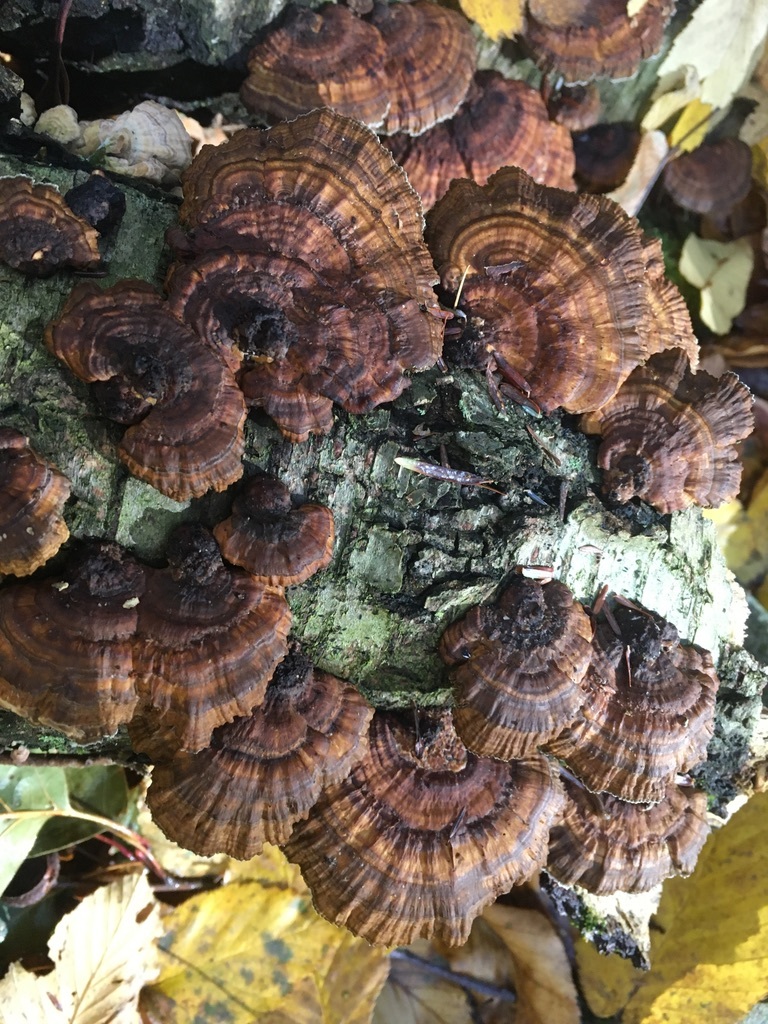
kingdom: Fungi
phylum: Basidiomycota
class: Agaricomycetes
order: Polyporales
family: Polyporaceae
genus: Daedaleopsis
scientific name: Daedaleopsis confragosa
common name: Blushing bracket
